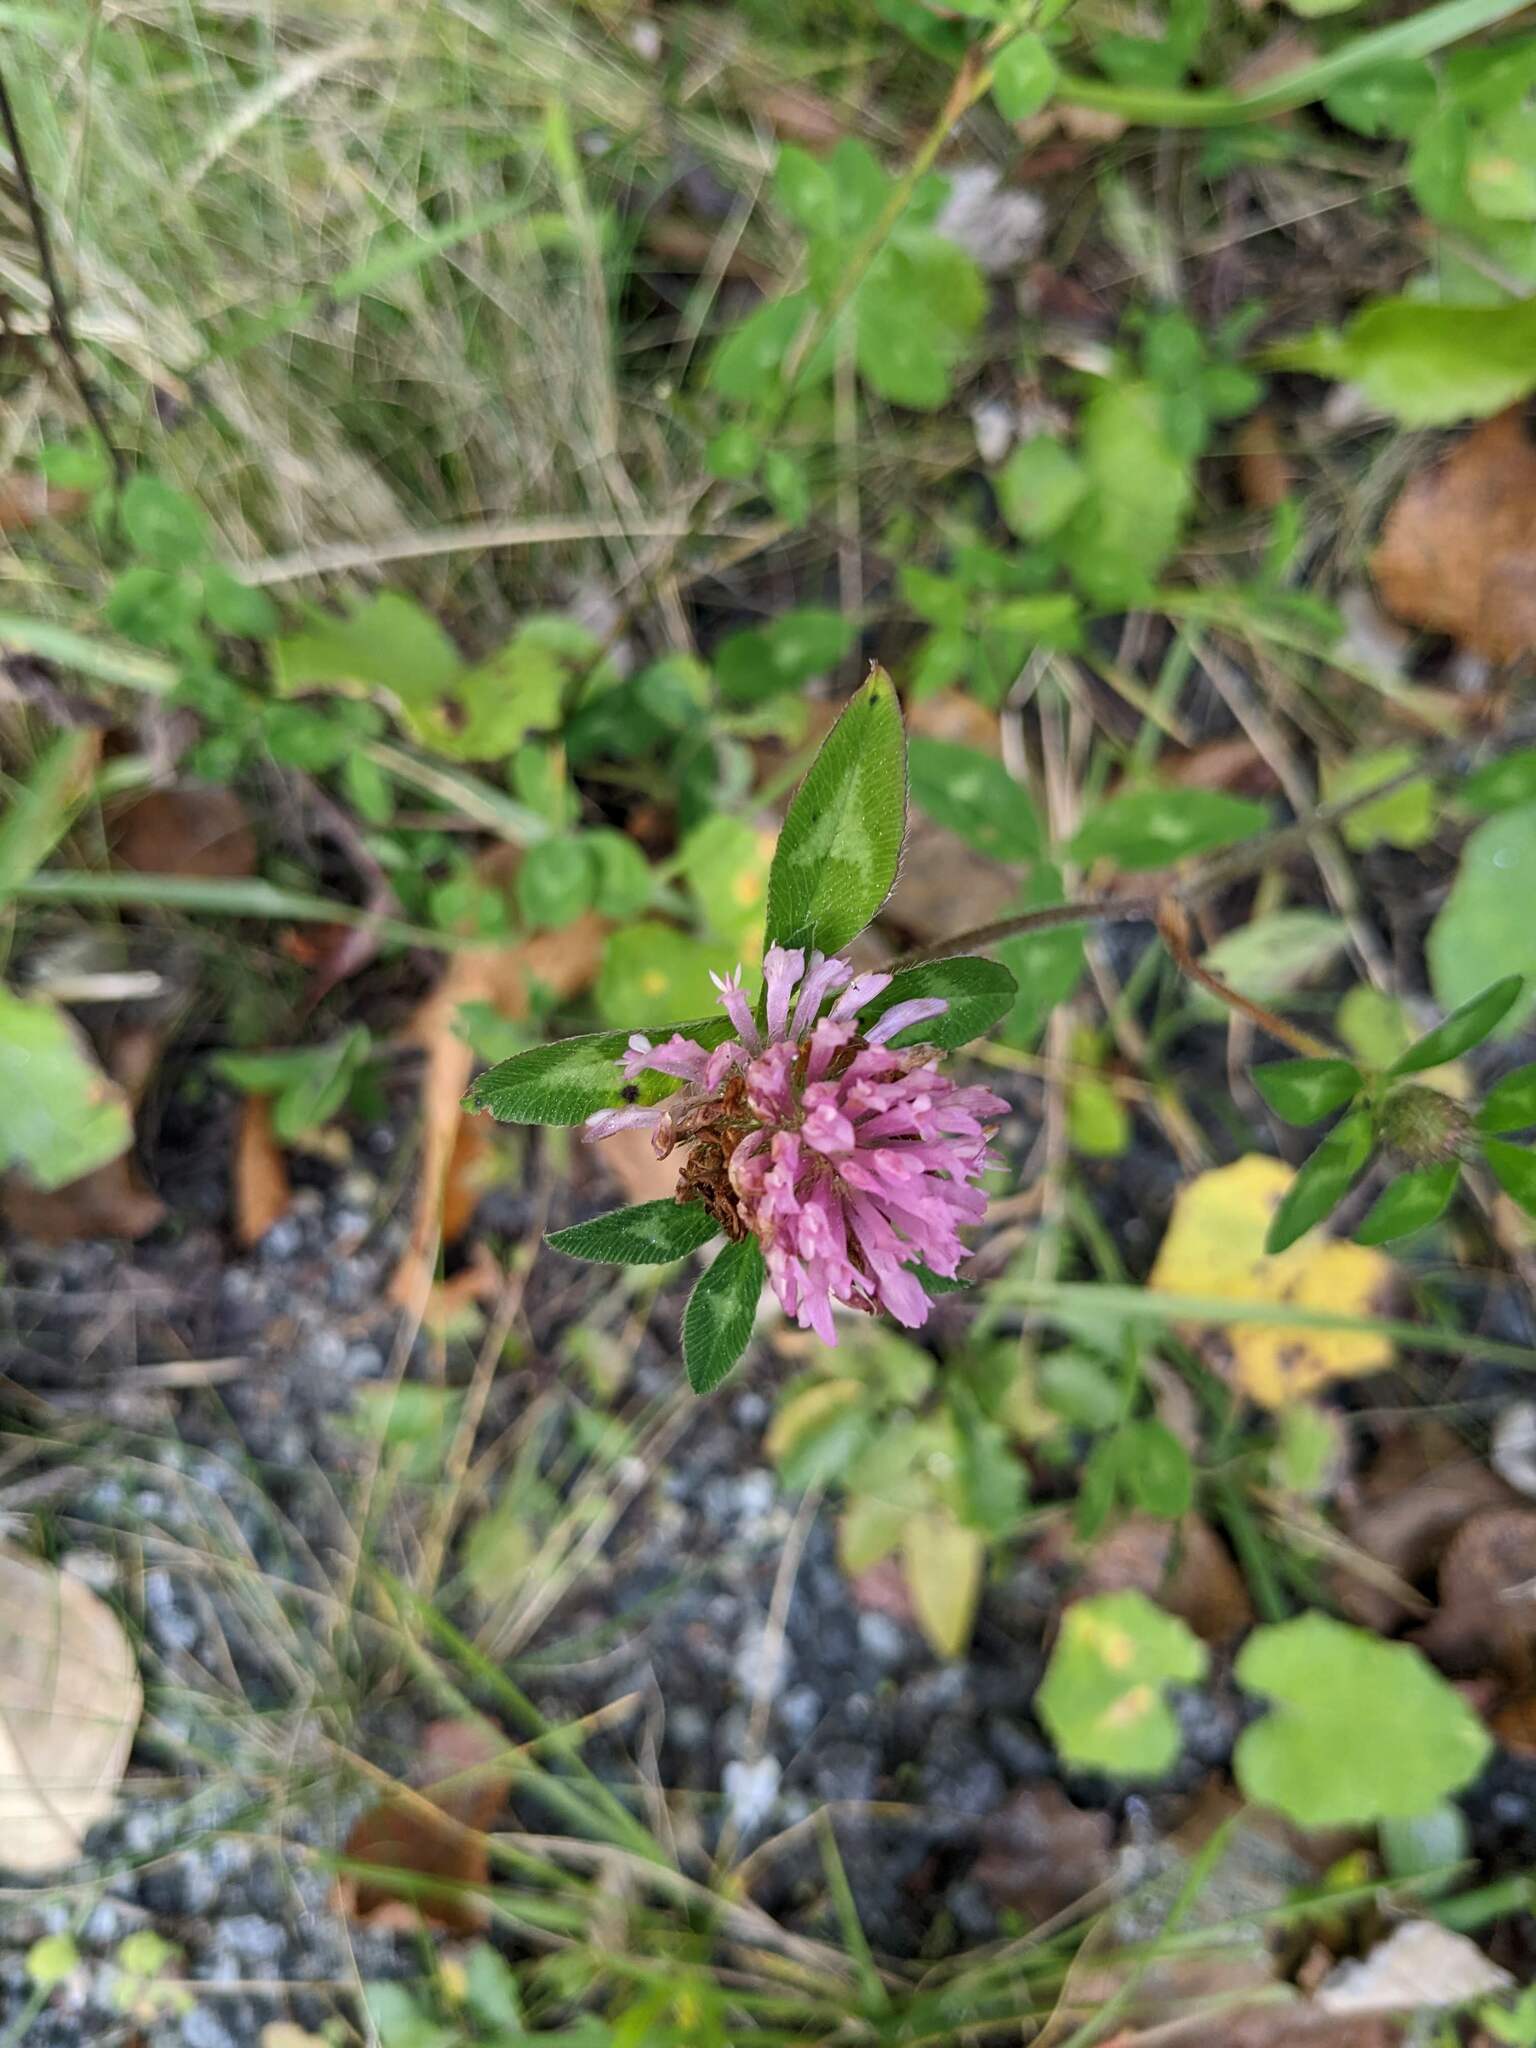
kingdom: Plantae
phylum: Tracheophyta
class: Magnoliopsida
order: Fabales
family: Fabaceae
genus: Trifolium
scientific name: Trifolium pratense
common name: Red clover
